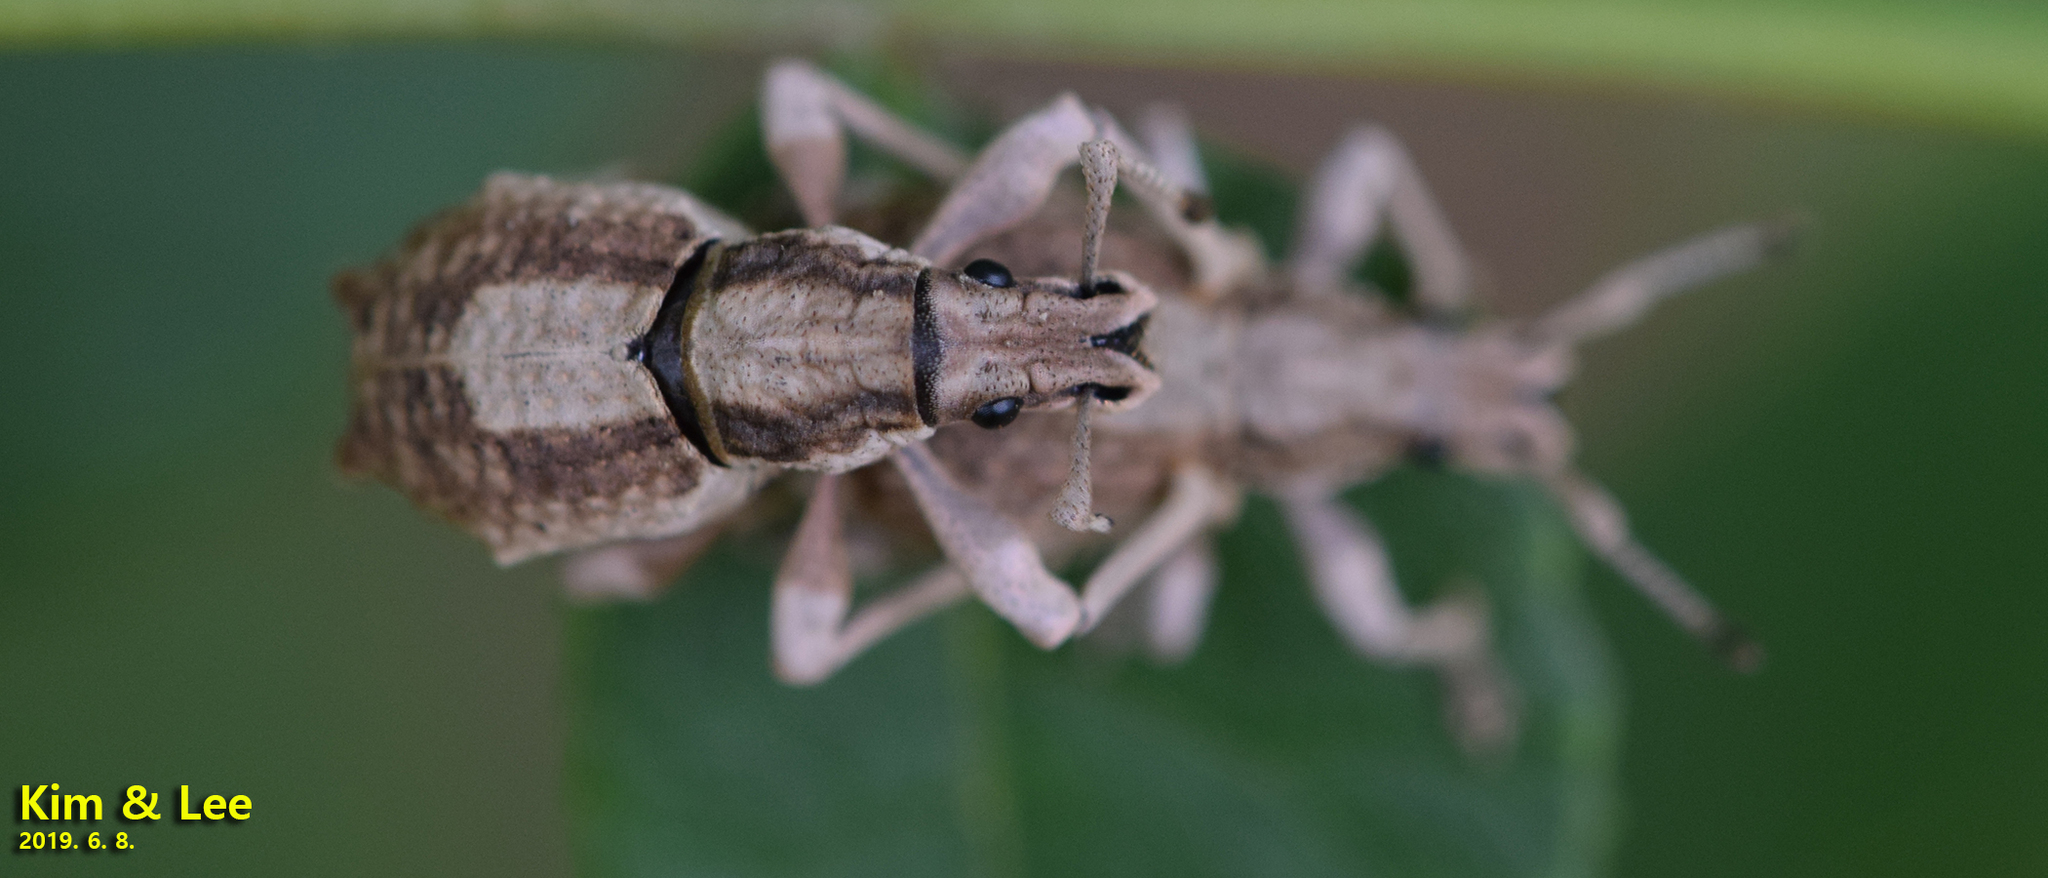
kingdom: Animalia
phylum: Arthropoda
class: Insecta
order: Coleoptera
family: Curculionidae
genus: Episomus
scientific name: Episomus turritus
